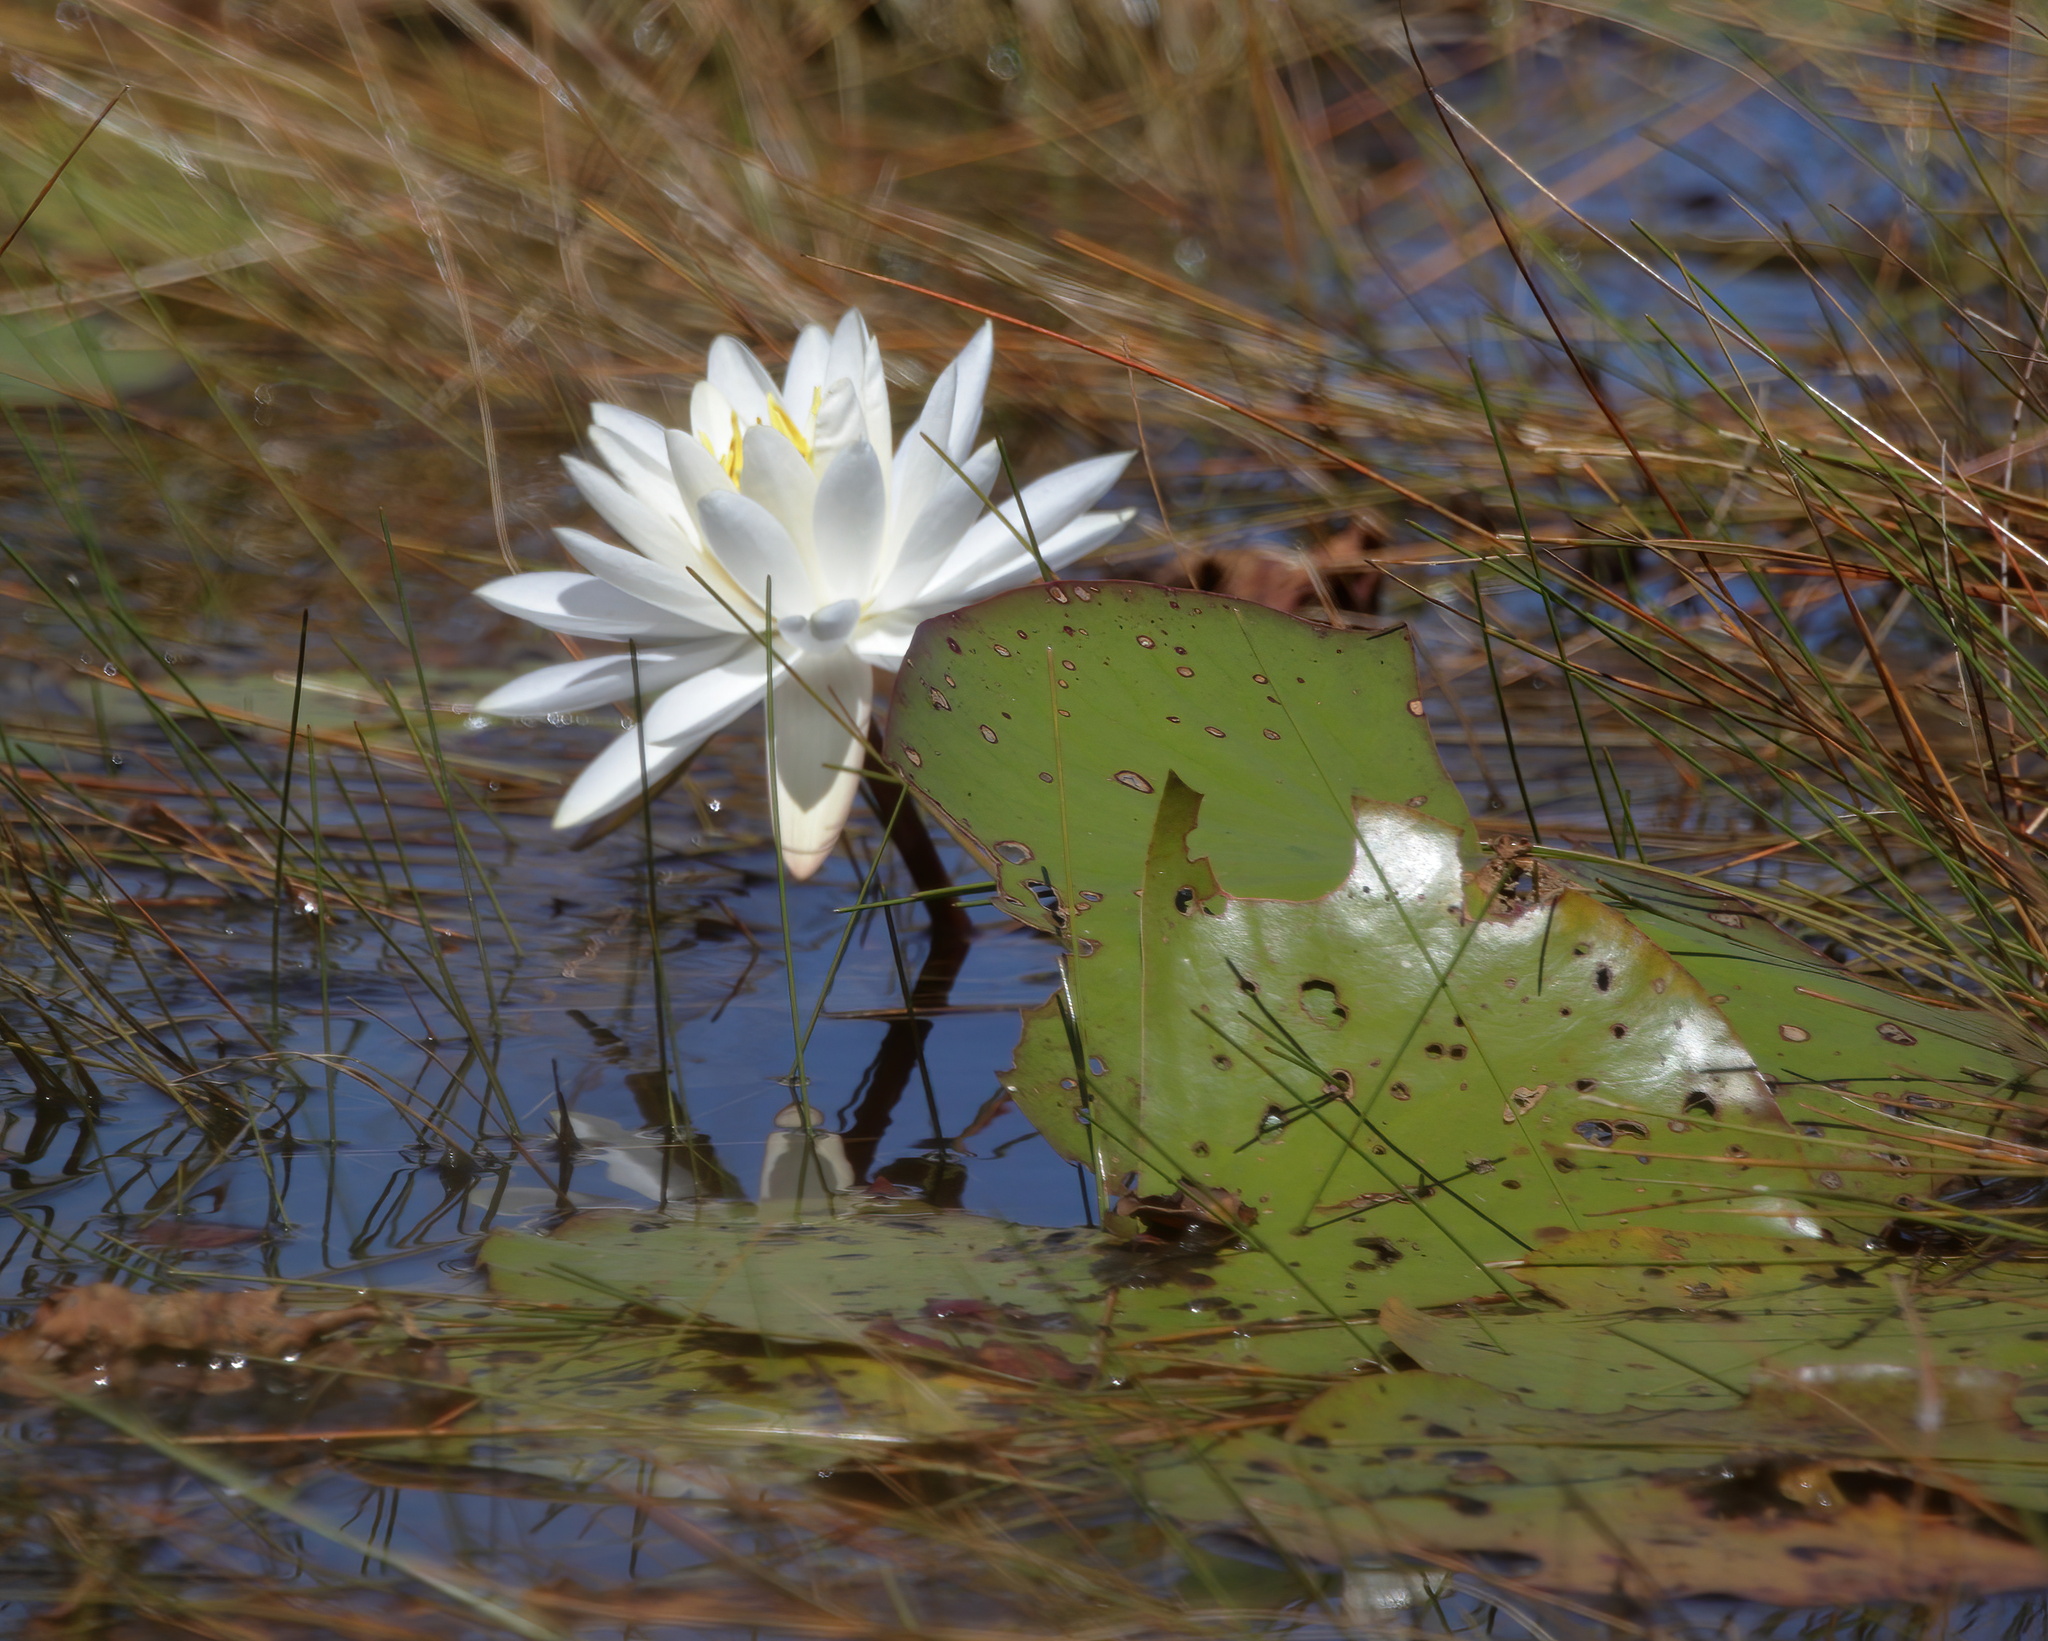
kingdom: Plantae
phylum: Tracheophyta
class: Magnoliopsida
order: Nymphaeales
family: Nymphaeaceae
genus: Nymphaea
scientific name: Nymphaea odorata
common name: Fragrant water-lily
